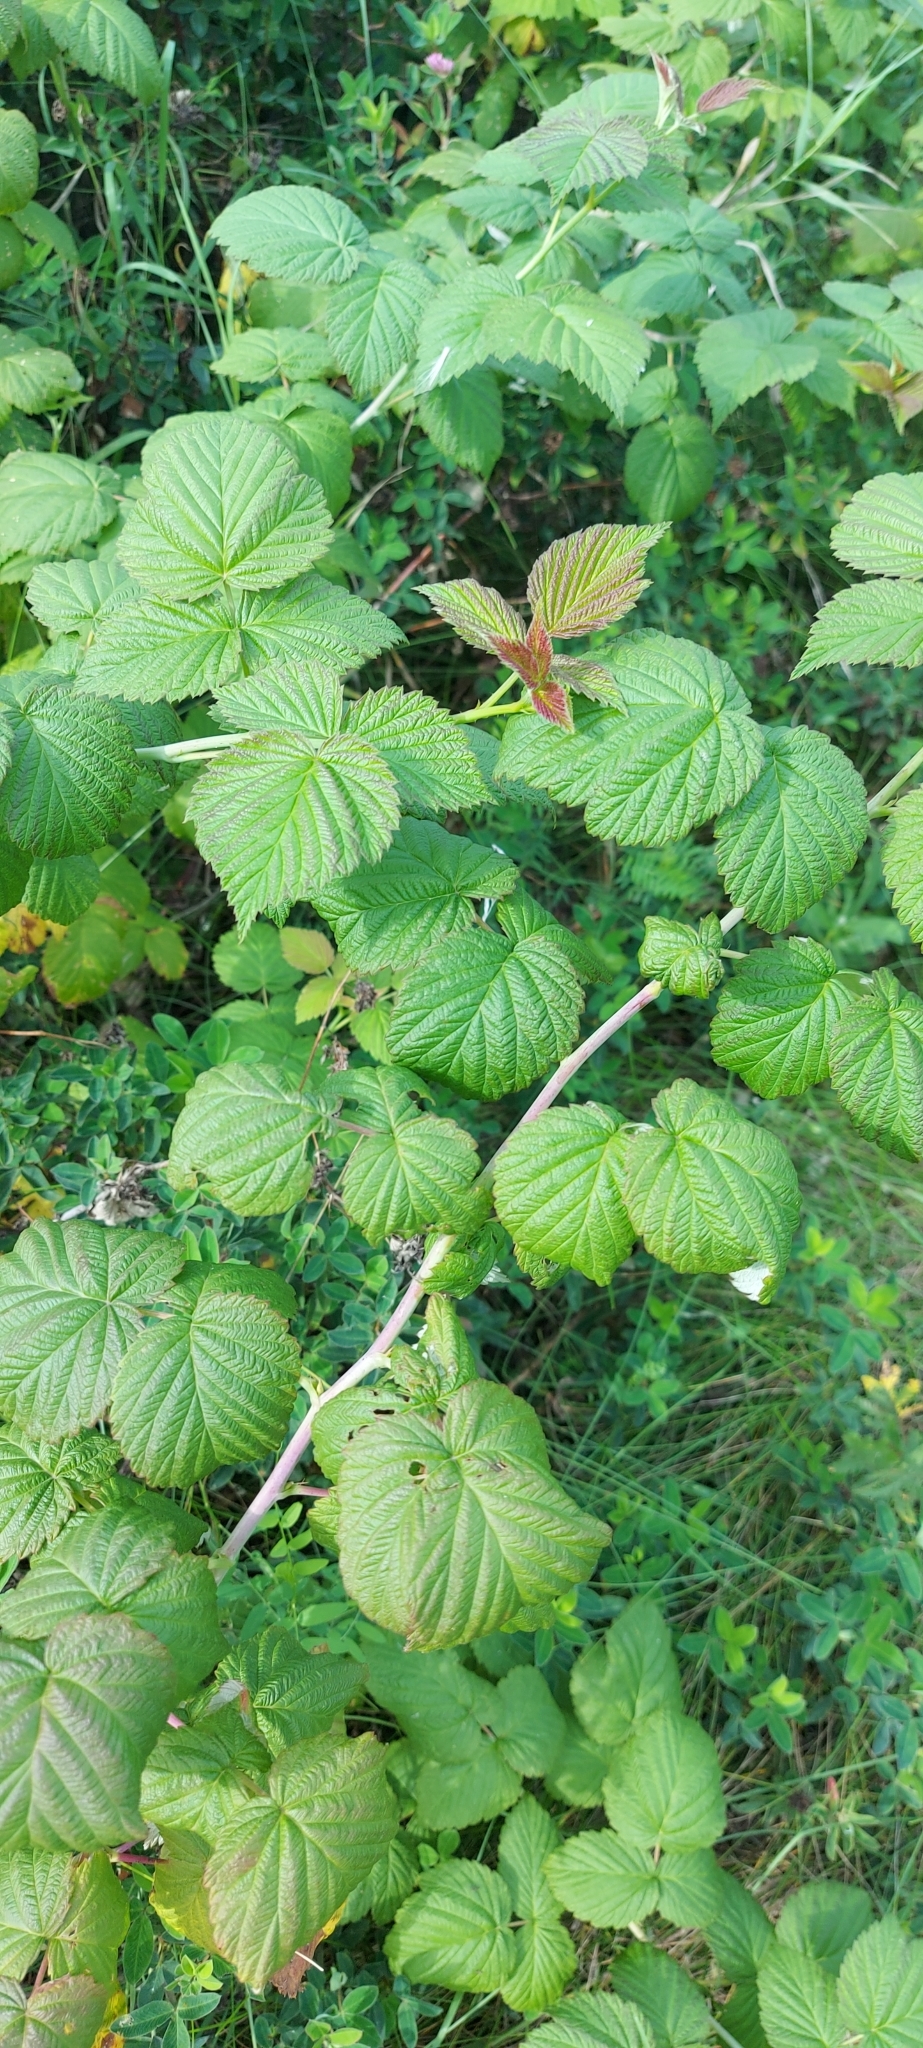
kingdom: Plantae
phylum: Tracheophyta
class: Magnoliopsida
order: Rosales
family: Rosaceae
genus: Rubus
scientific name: Rubus idaeus
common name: Raspberry
